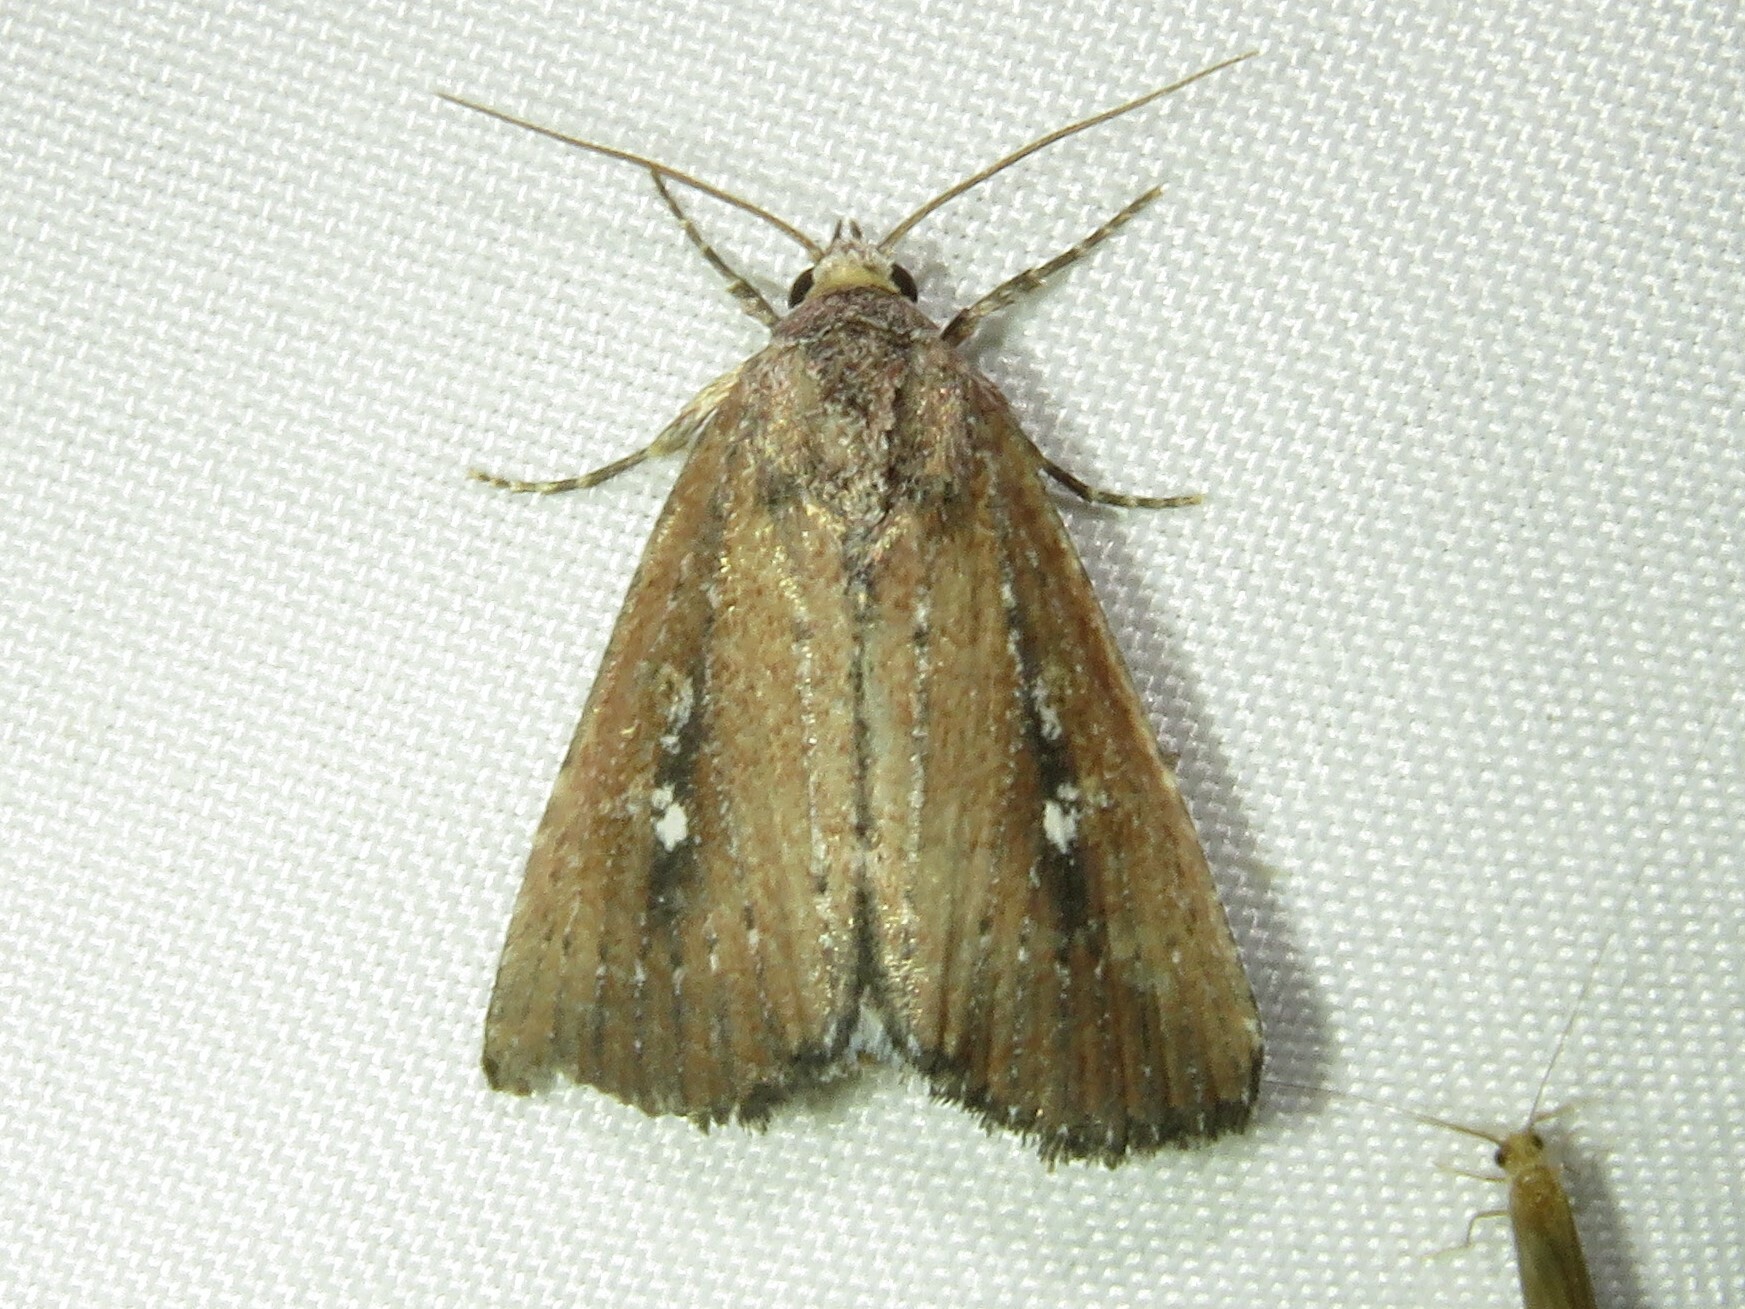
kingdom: Animalia
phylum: Arthropoda
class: Insecta
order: Lepidoptera
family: Noctuidae
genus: Condica
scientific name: Condica videns
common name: White-dotted groundling
